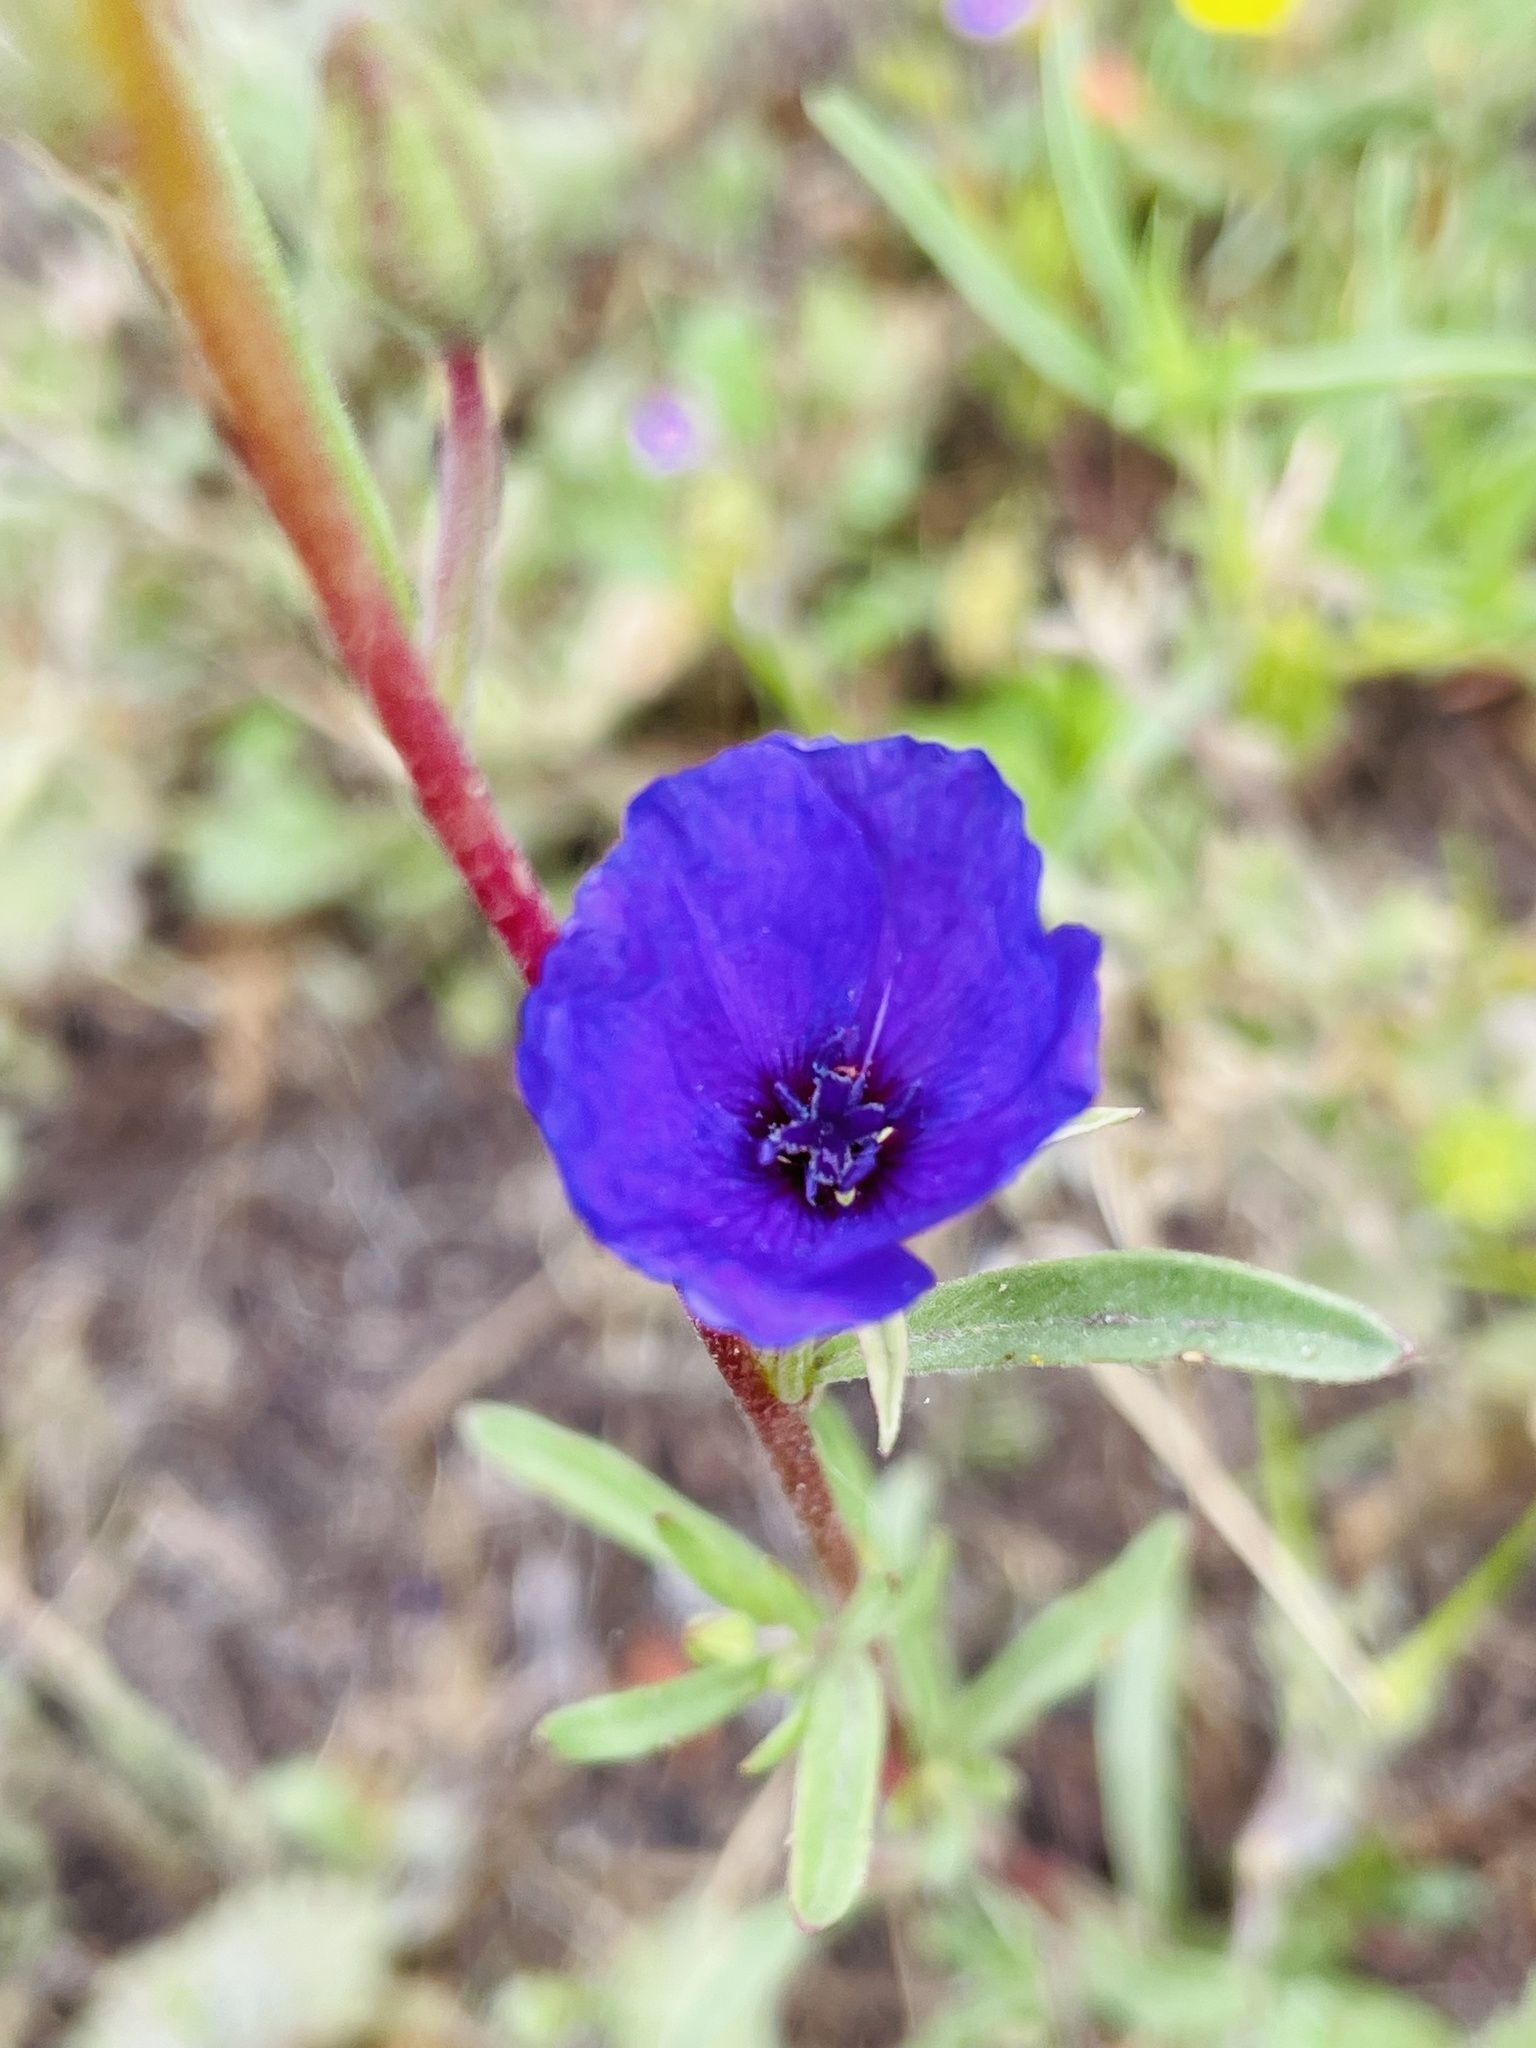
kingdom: Plantae
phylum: Tracheophyta
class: Magnoliopsida
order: Myrtales
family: Onagraceae
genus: Clarkia
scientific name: Clarkia tenella
